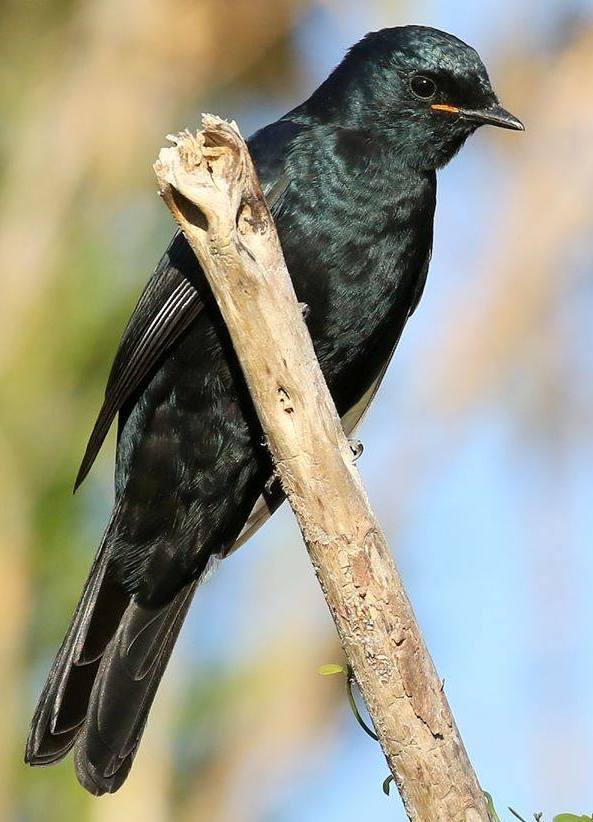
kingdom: Animalia
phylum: Chordata
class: Aves
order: Passeriformes
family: Campephagidae
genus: Campephaga
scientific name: Campephaga flava
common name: Black cuckooshrike
